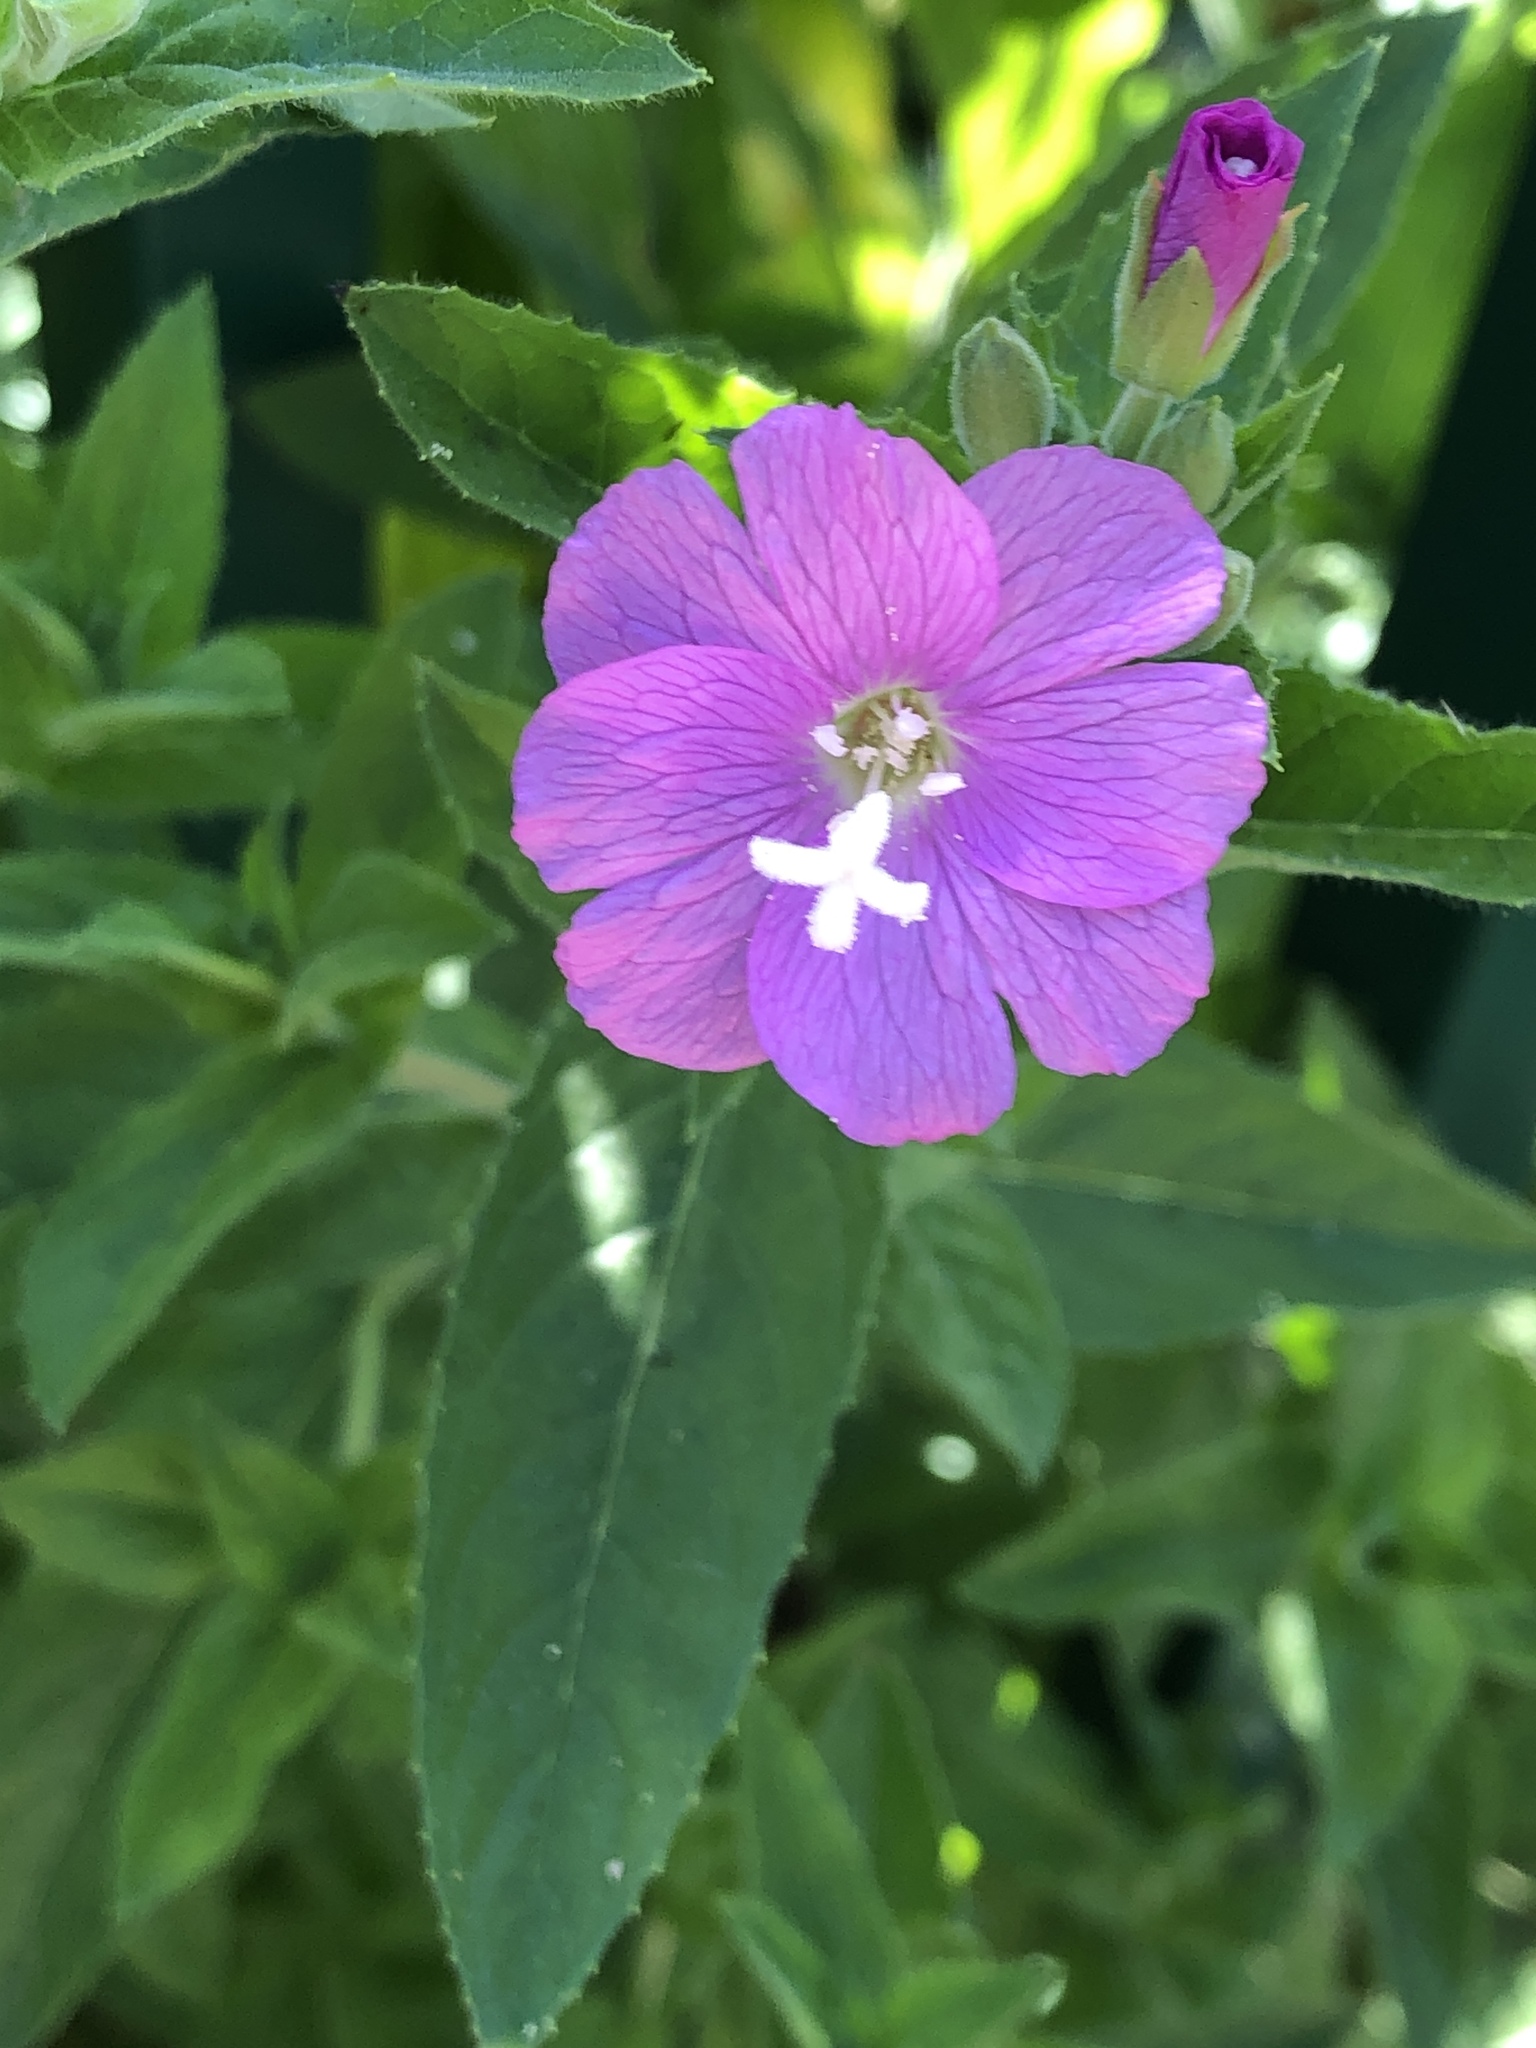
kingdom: Plantae
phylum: Tracheophyta
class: Magnoliopsida
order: Myrtales
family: Onagraceae
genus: Epilobium
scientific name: Epilobium hirsutum
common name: Great willowherb
